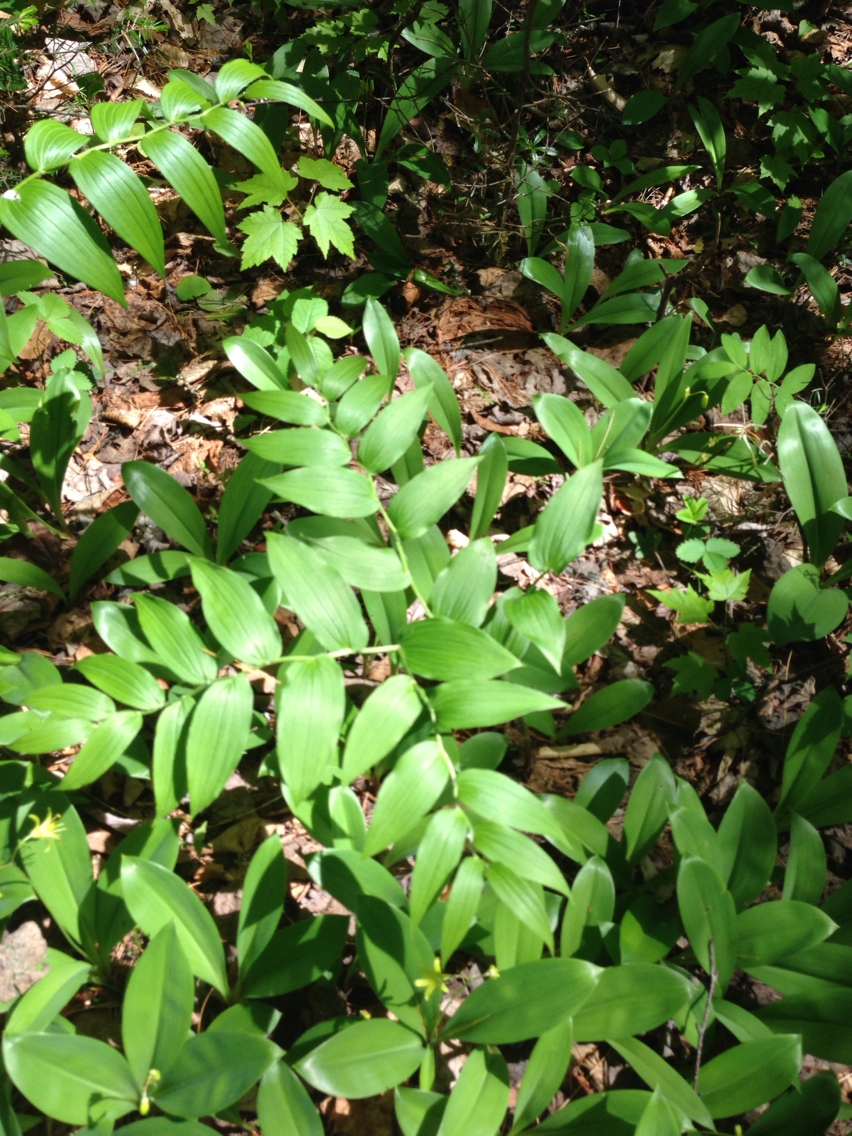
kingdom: Plantae
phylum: Tracheophyta
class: Liliopsida
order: Liliales
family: Liliaceae
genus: Streptopus
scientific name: Streptopus lanceolatus
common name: Rose mandarin
